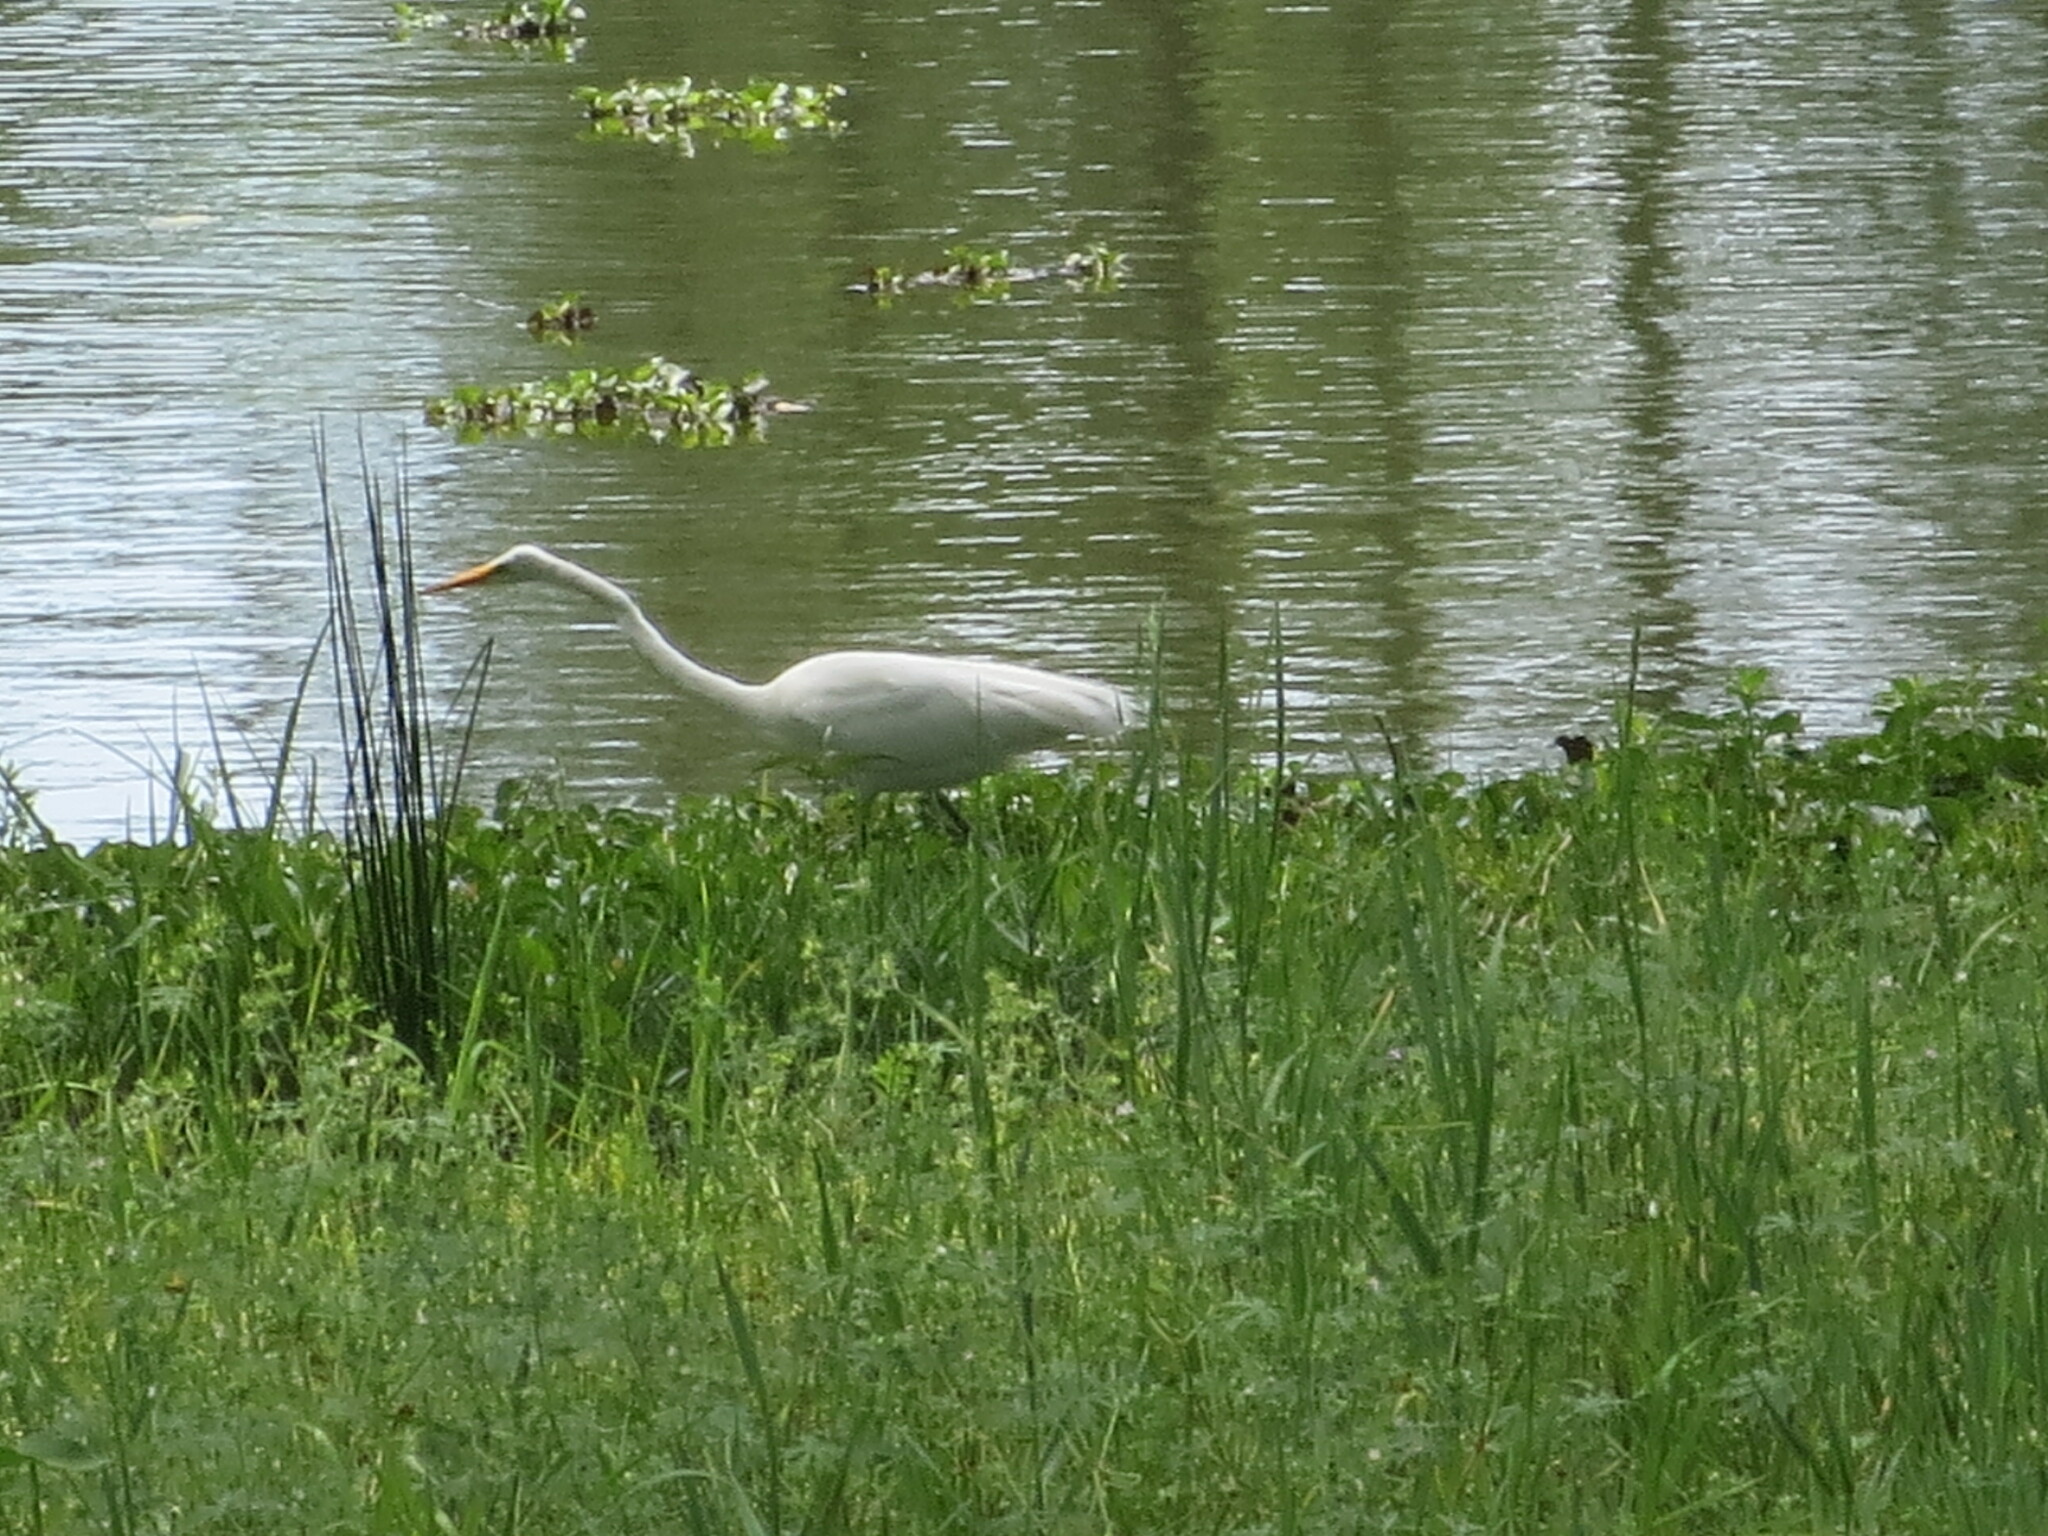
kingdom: Animalia
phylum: Chordata
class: Aves
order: Pelecaniformes
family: Ardeidae
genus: Ardea
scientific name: Ardea alba
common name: Great egret
